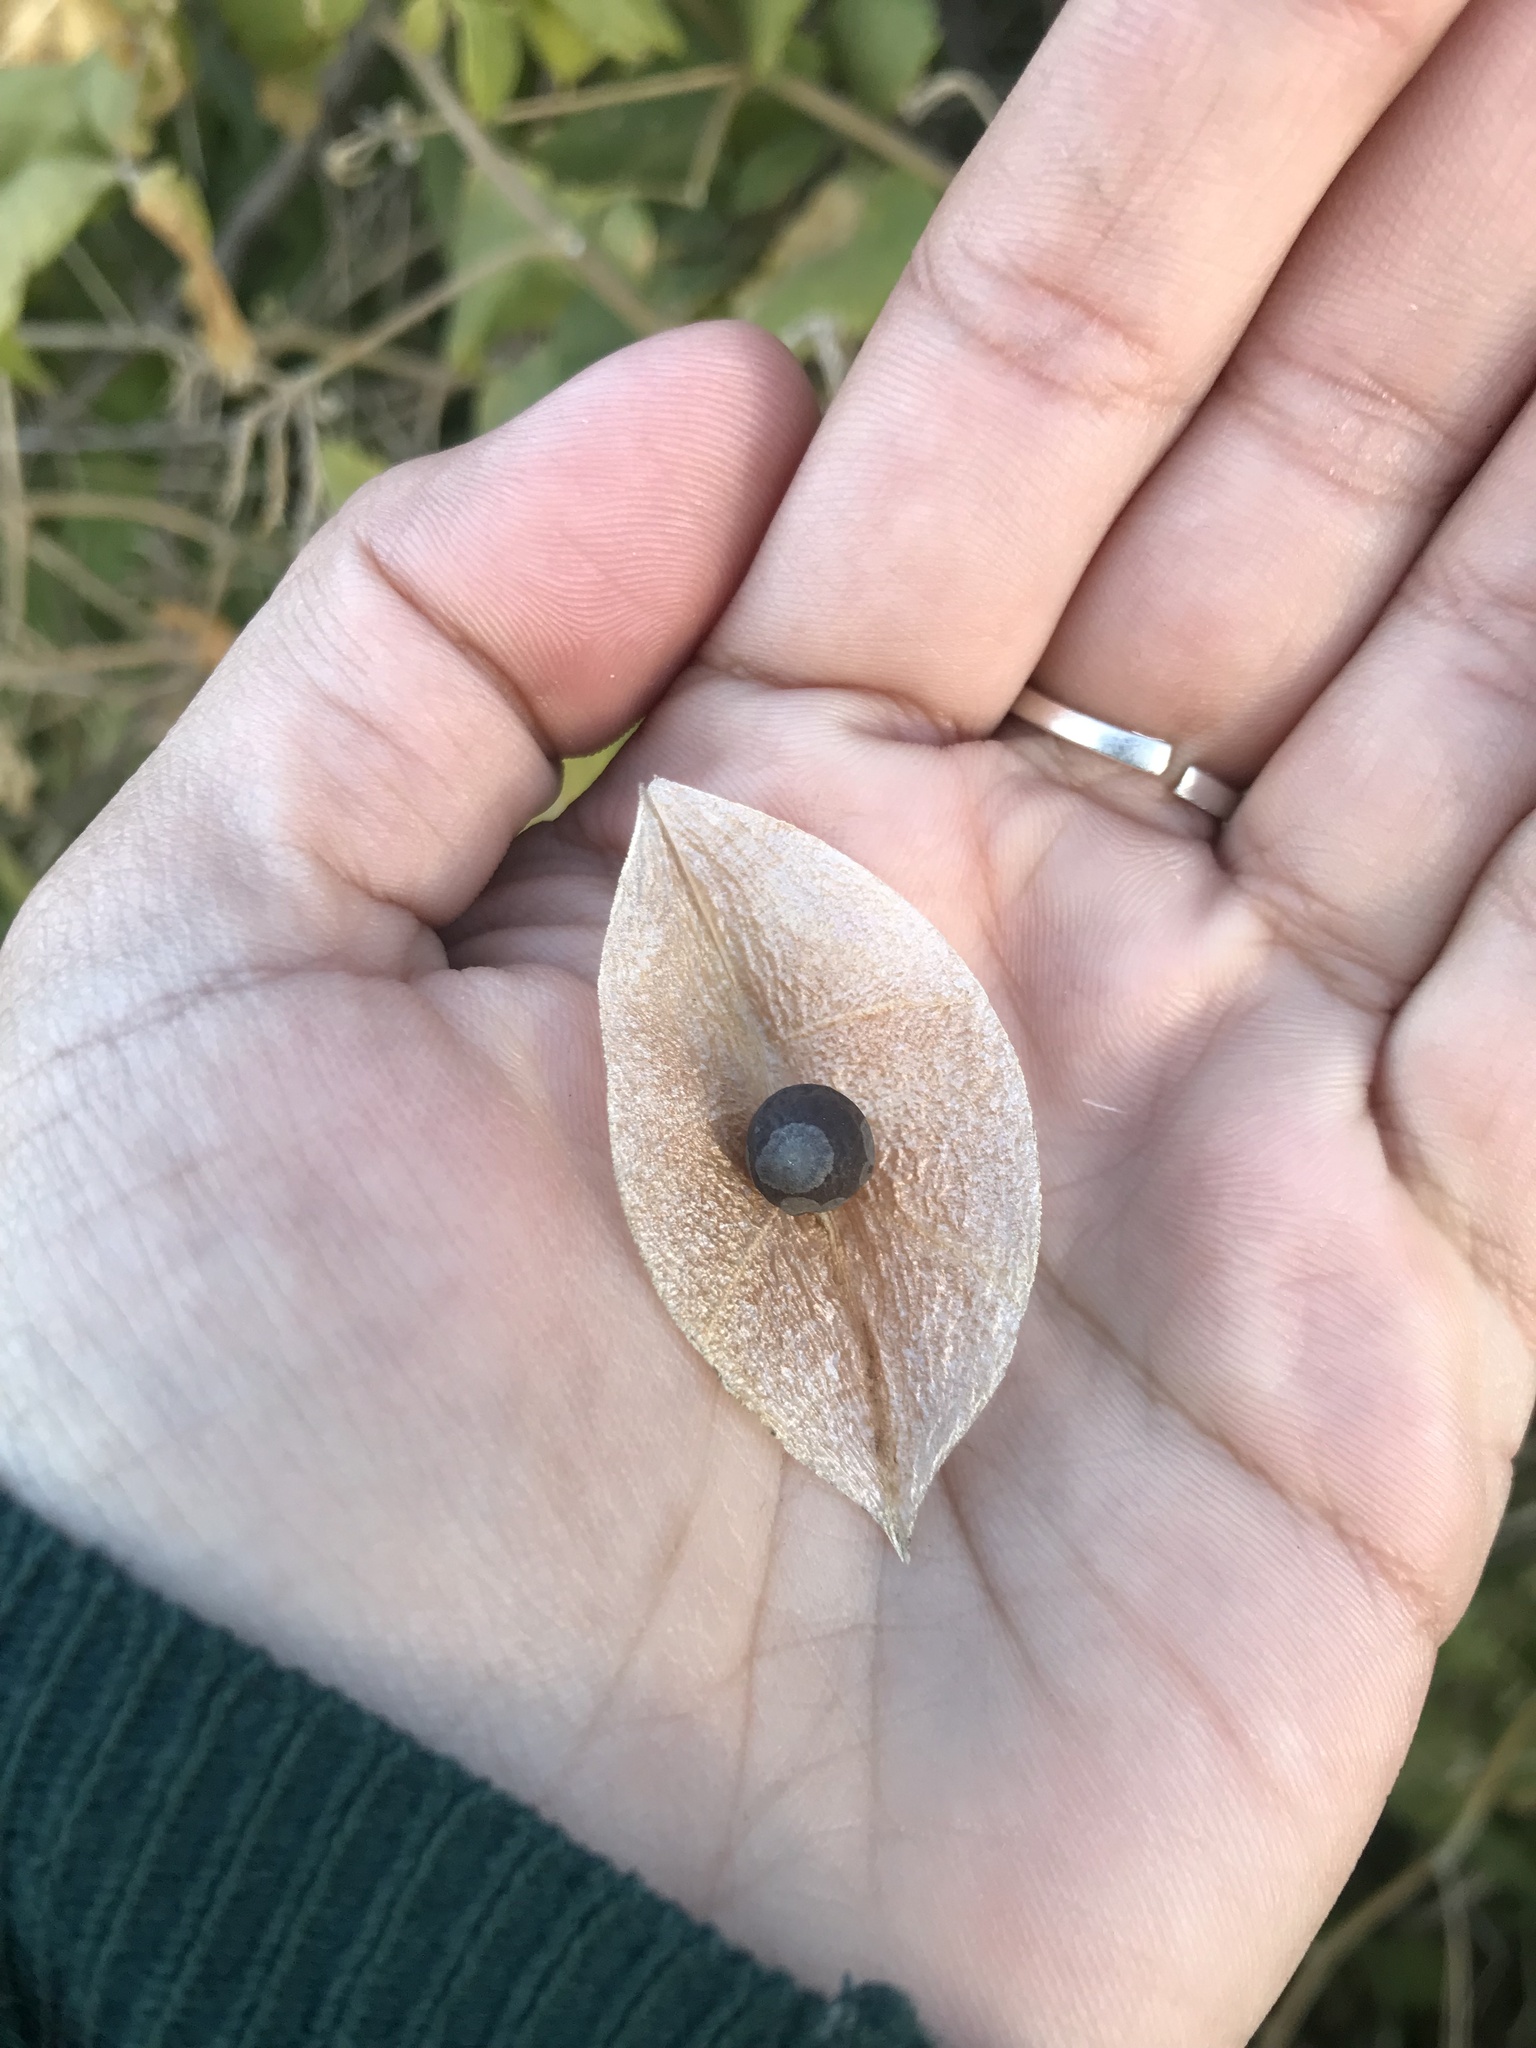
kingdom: Plantae
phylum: Tracheophyta
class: Magnoliopsida
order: Sapindales
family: Sapindaceae
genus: Cardiospermum
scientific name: Cardiospermum grandiflorum
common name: Balloon vine
